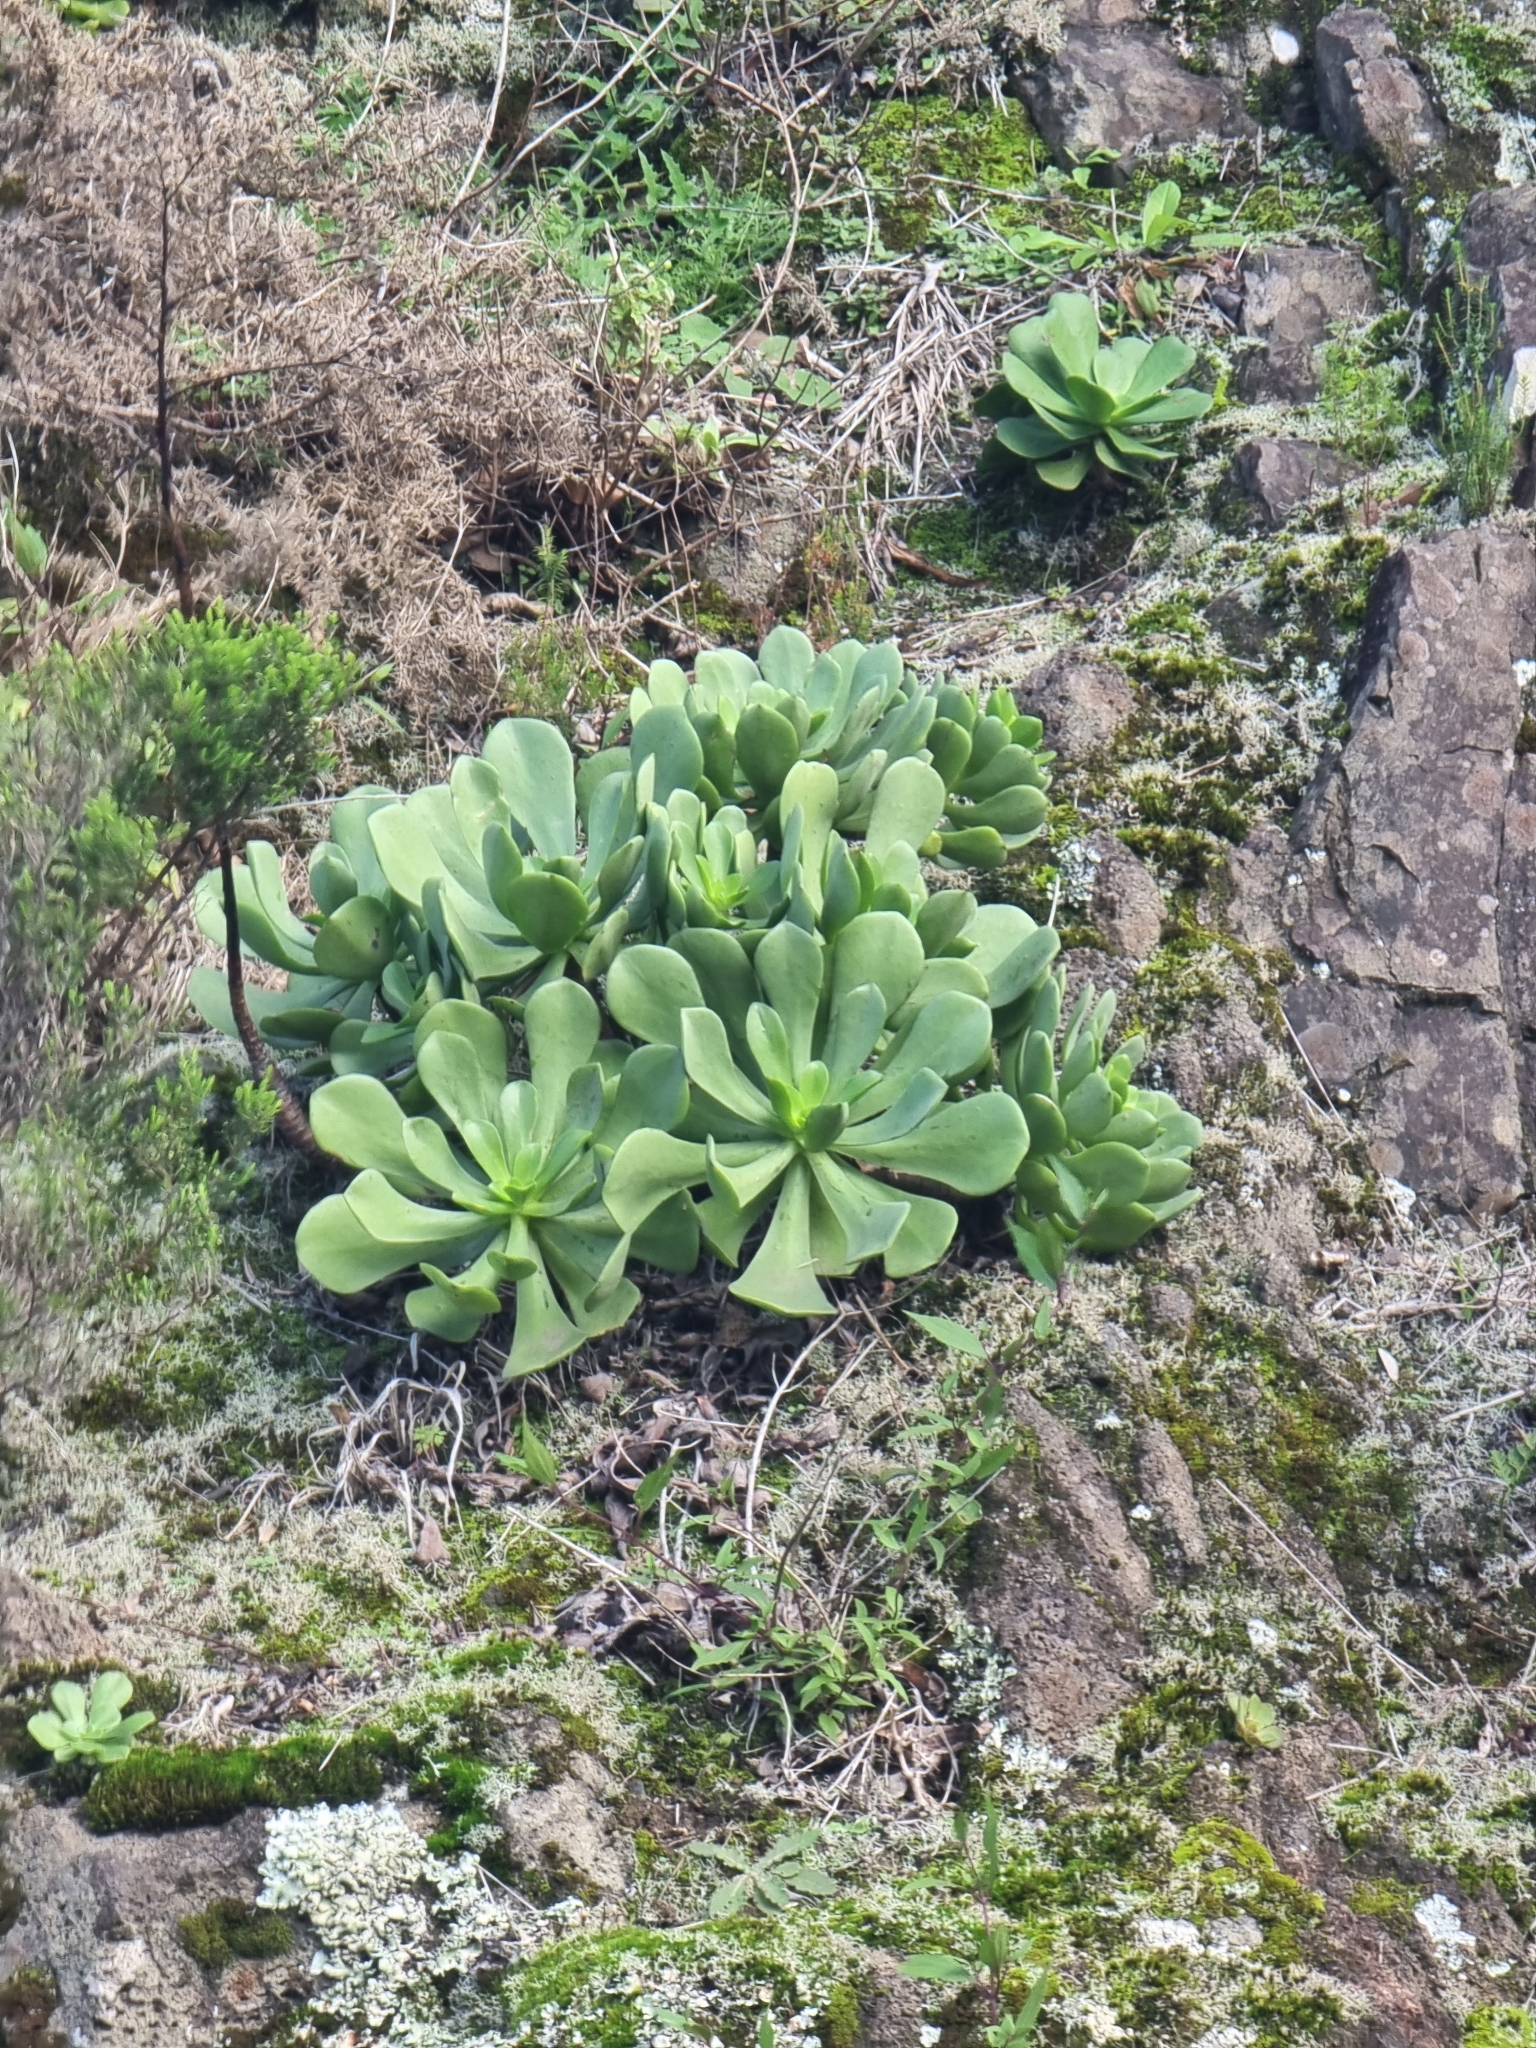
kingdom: Plantae
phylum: Tracheophyta
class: Magnoliopsida
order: Saxifragales
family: Crassulaceae
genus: Aeonium
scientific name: Aeonium glutinosum
